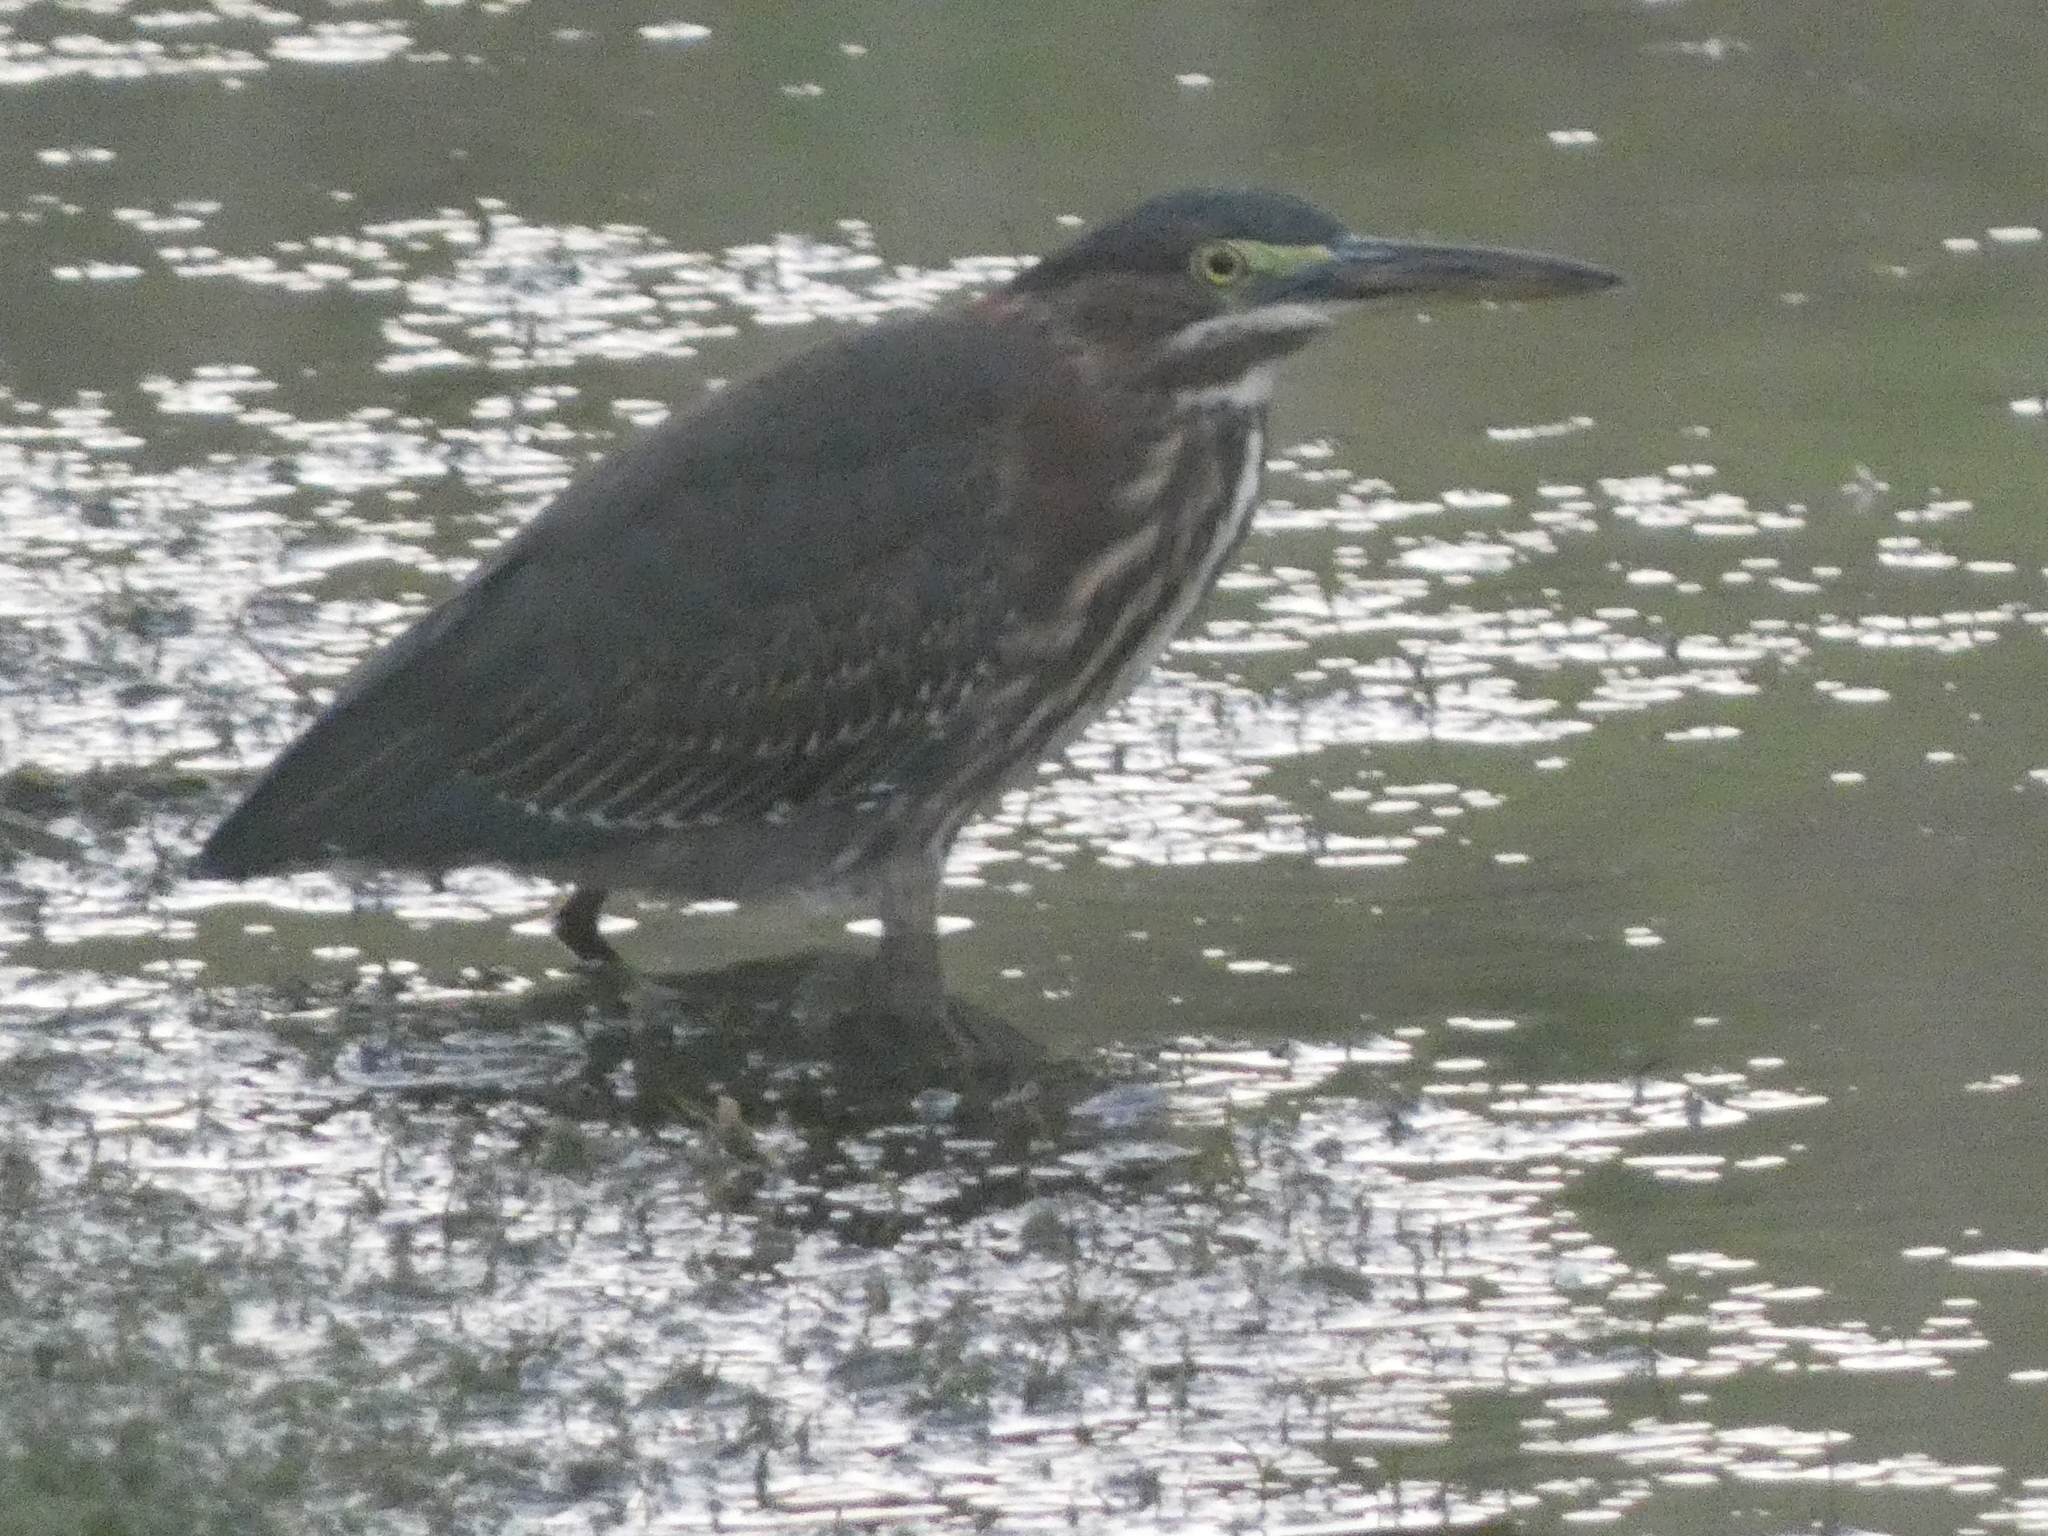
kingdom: Animalia
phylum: Chordata
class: Aves
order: Pelecaniformes
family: Ardeidae
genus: Butorides
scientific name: Butorides virescens
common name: Green heron
